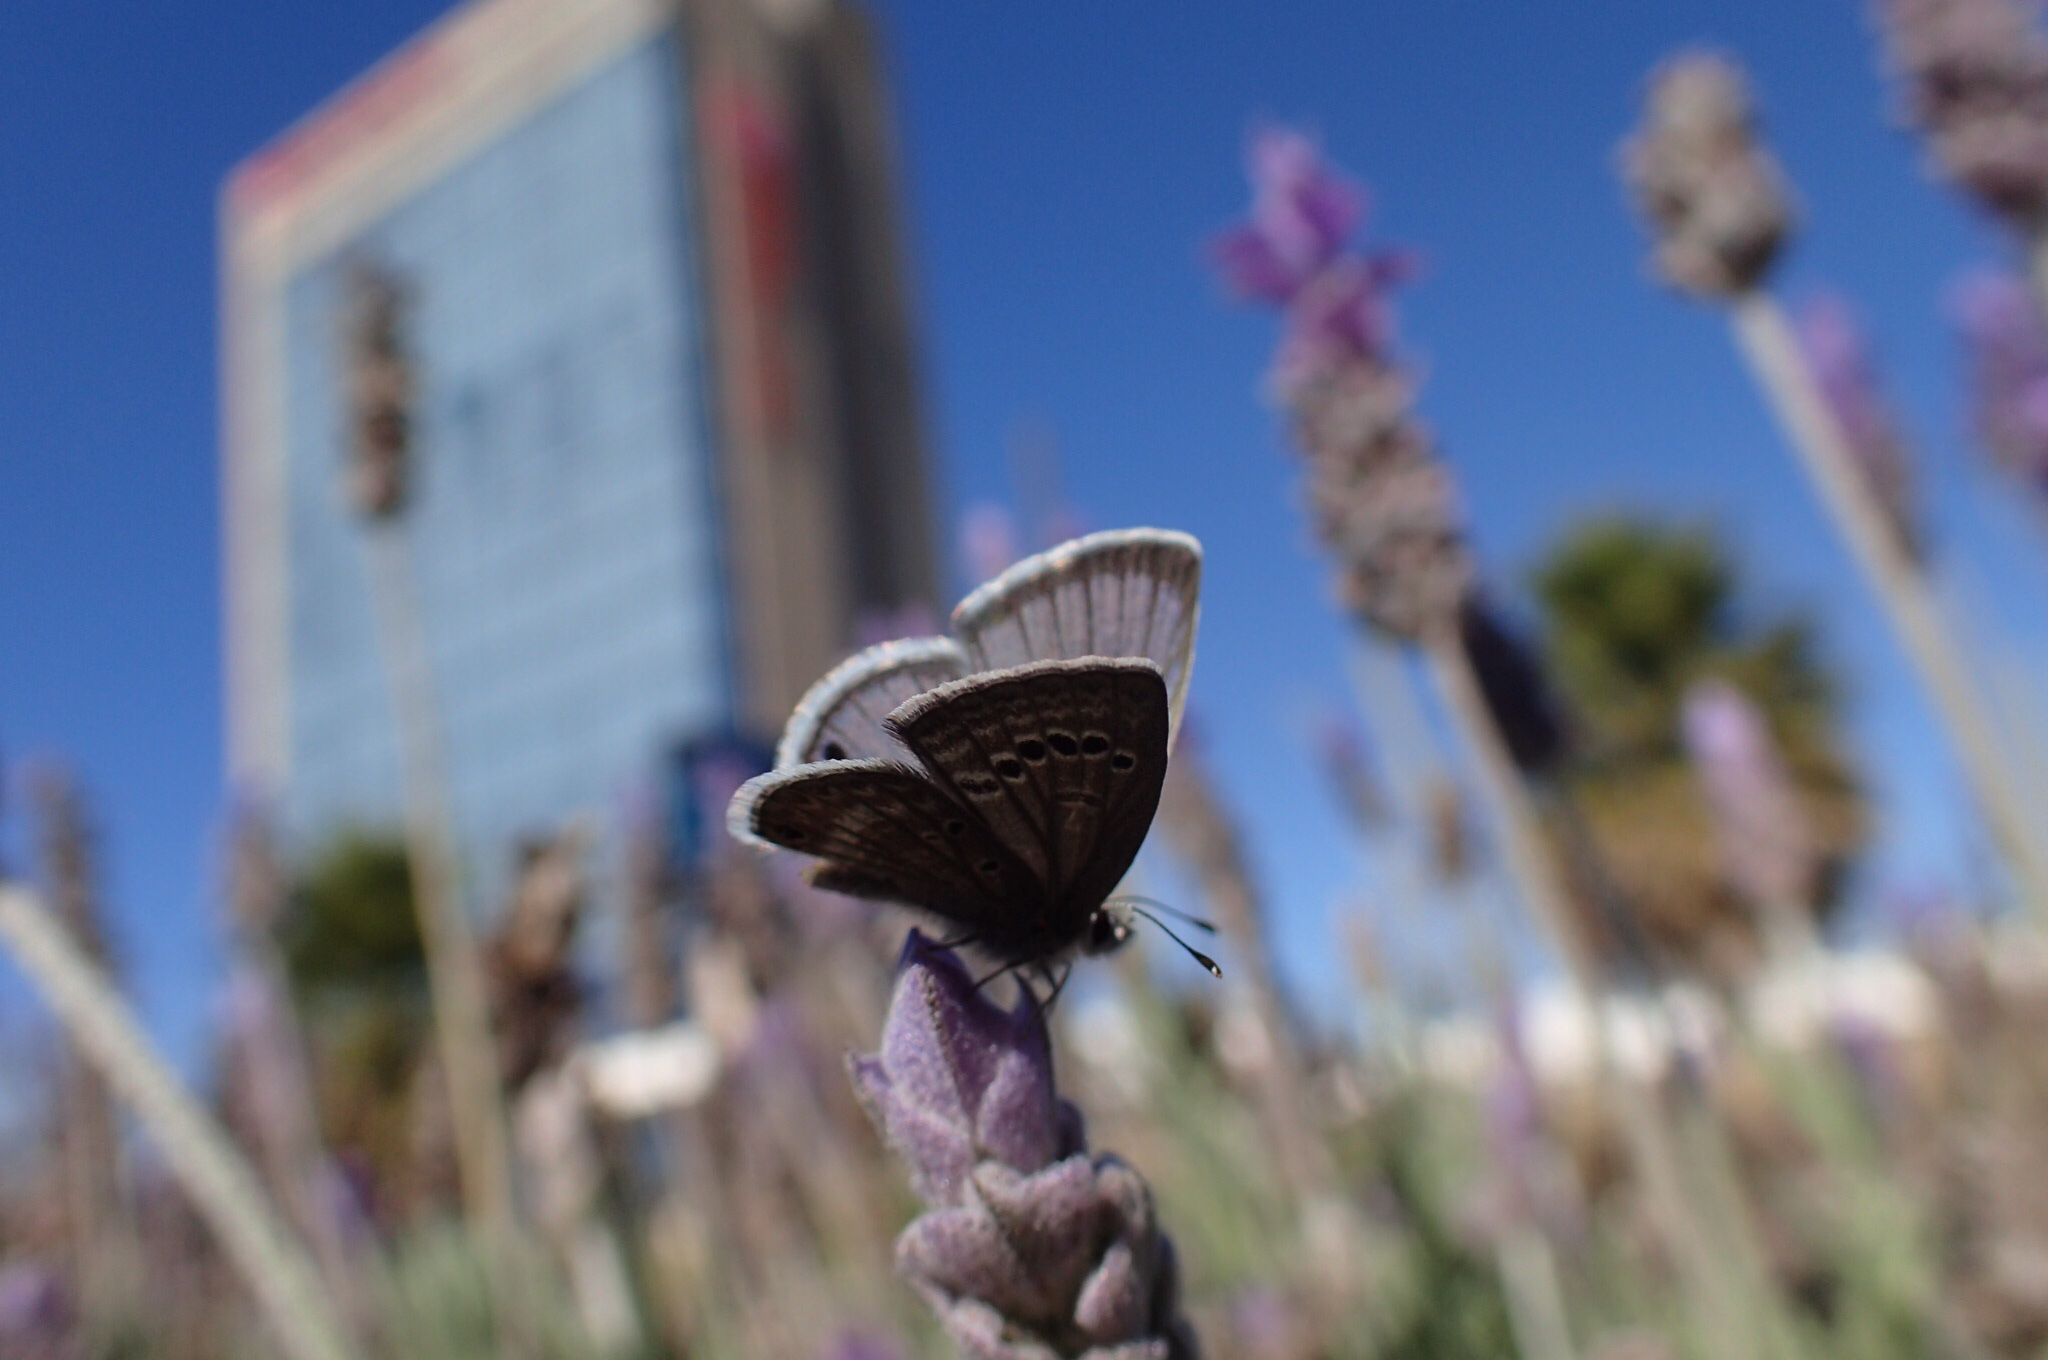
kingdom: Animalia
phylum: Arthropoda
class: Insecta
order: Lepidoptera
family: Lycaenidae
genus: Echinargus
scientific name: Echinargus isola
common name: Reakirt's blue
